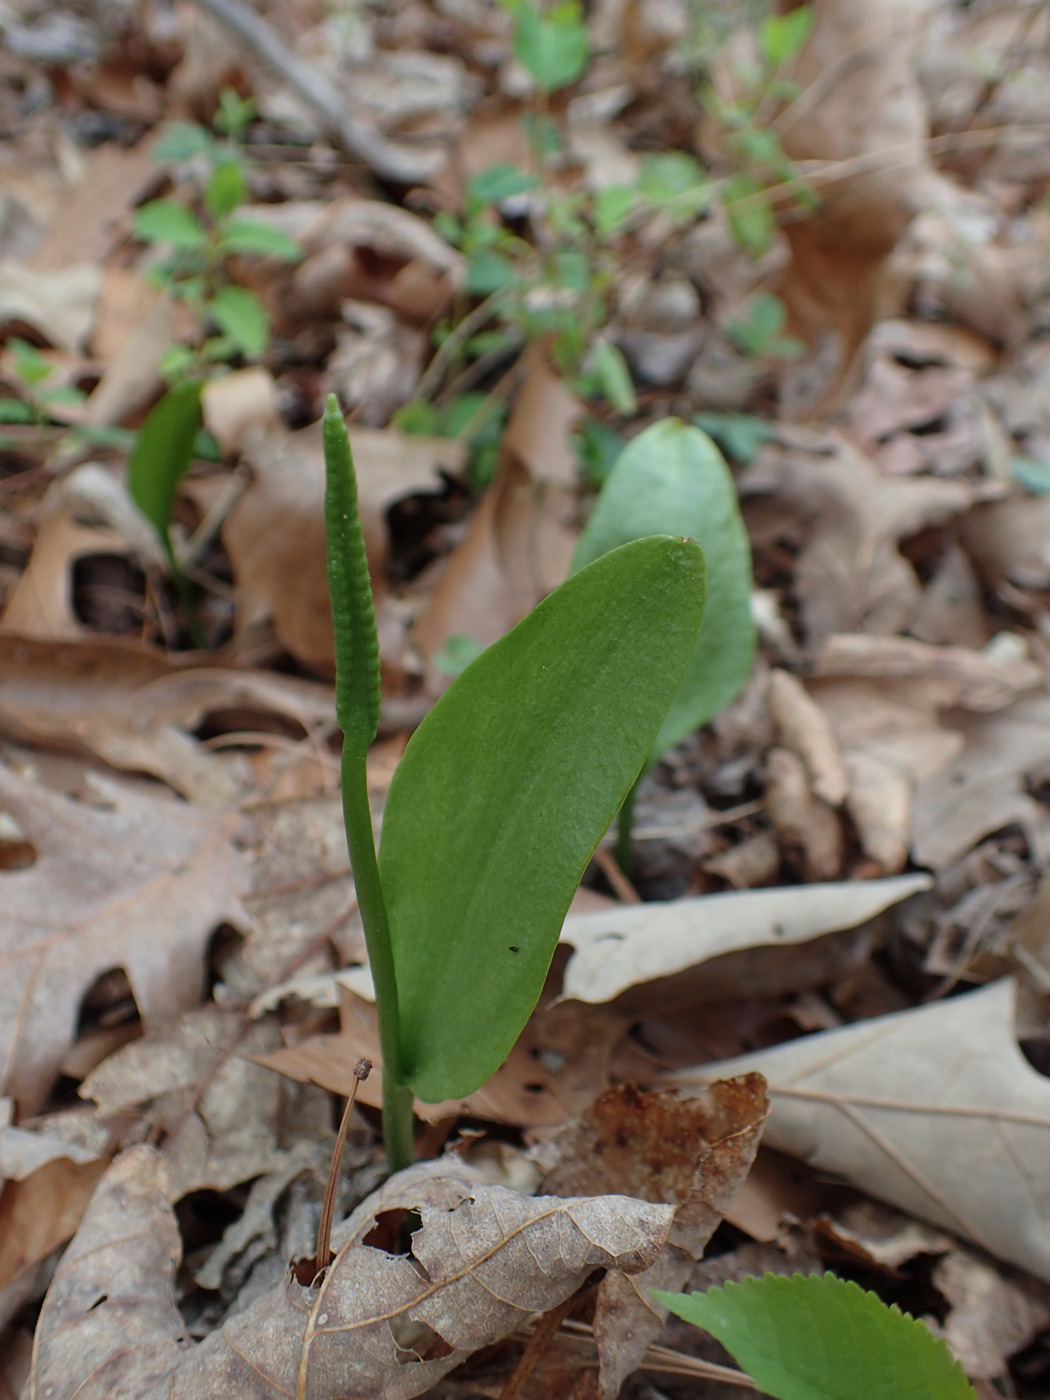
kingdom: Plantae
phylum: Tracheophyta
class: Polypodiopsida
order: Ophioglossales
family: Ophioglossaceae
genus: Ophioglossum
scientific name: Ophioglossum vulgatum
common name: Adder's-tongue
